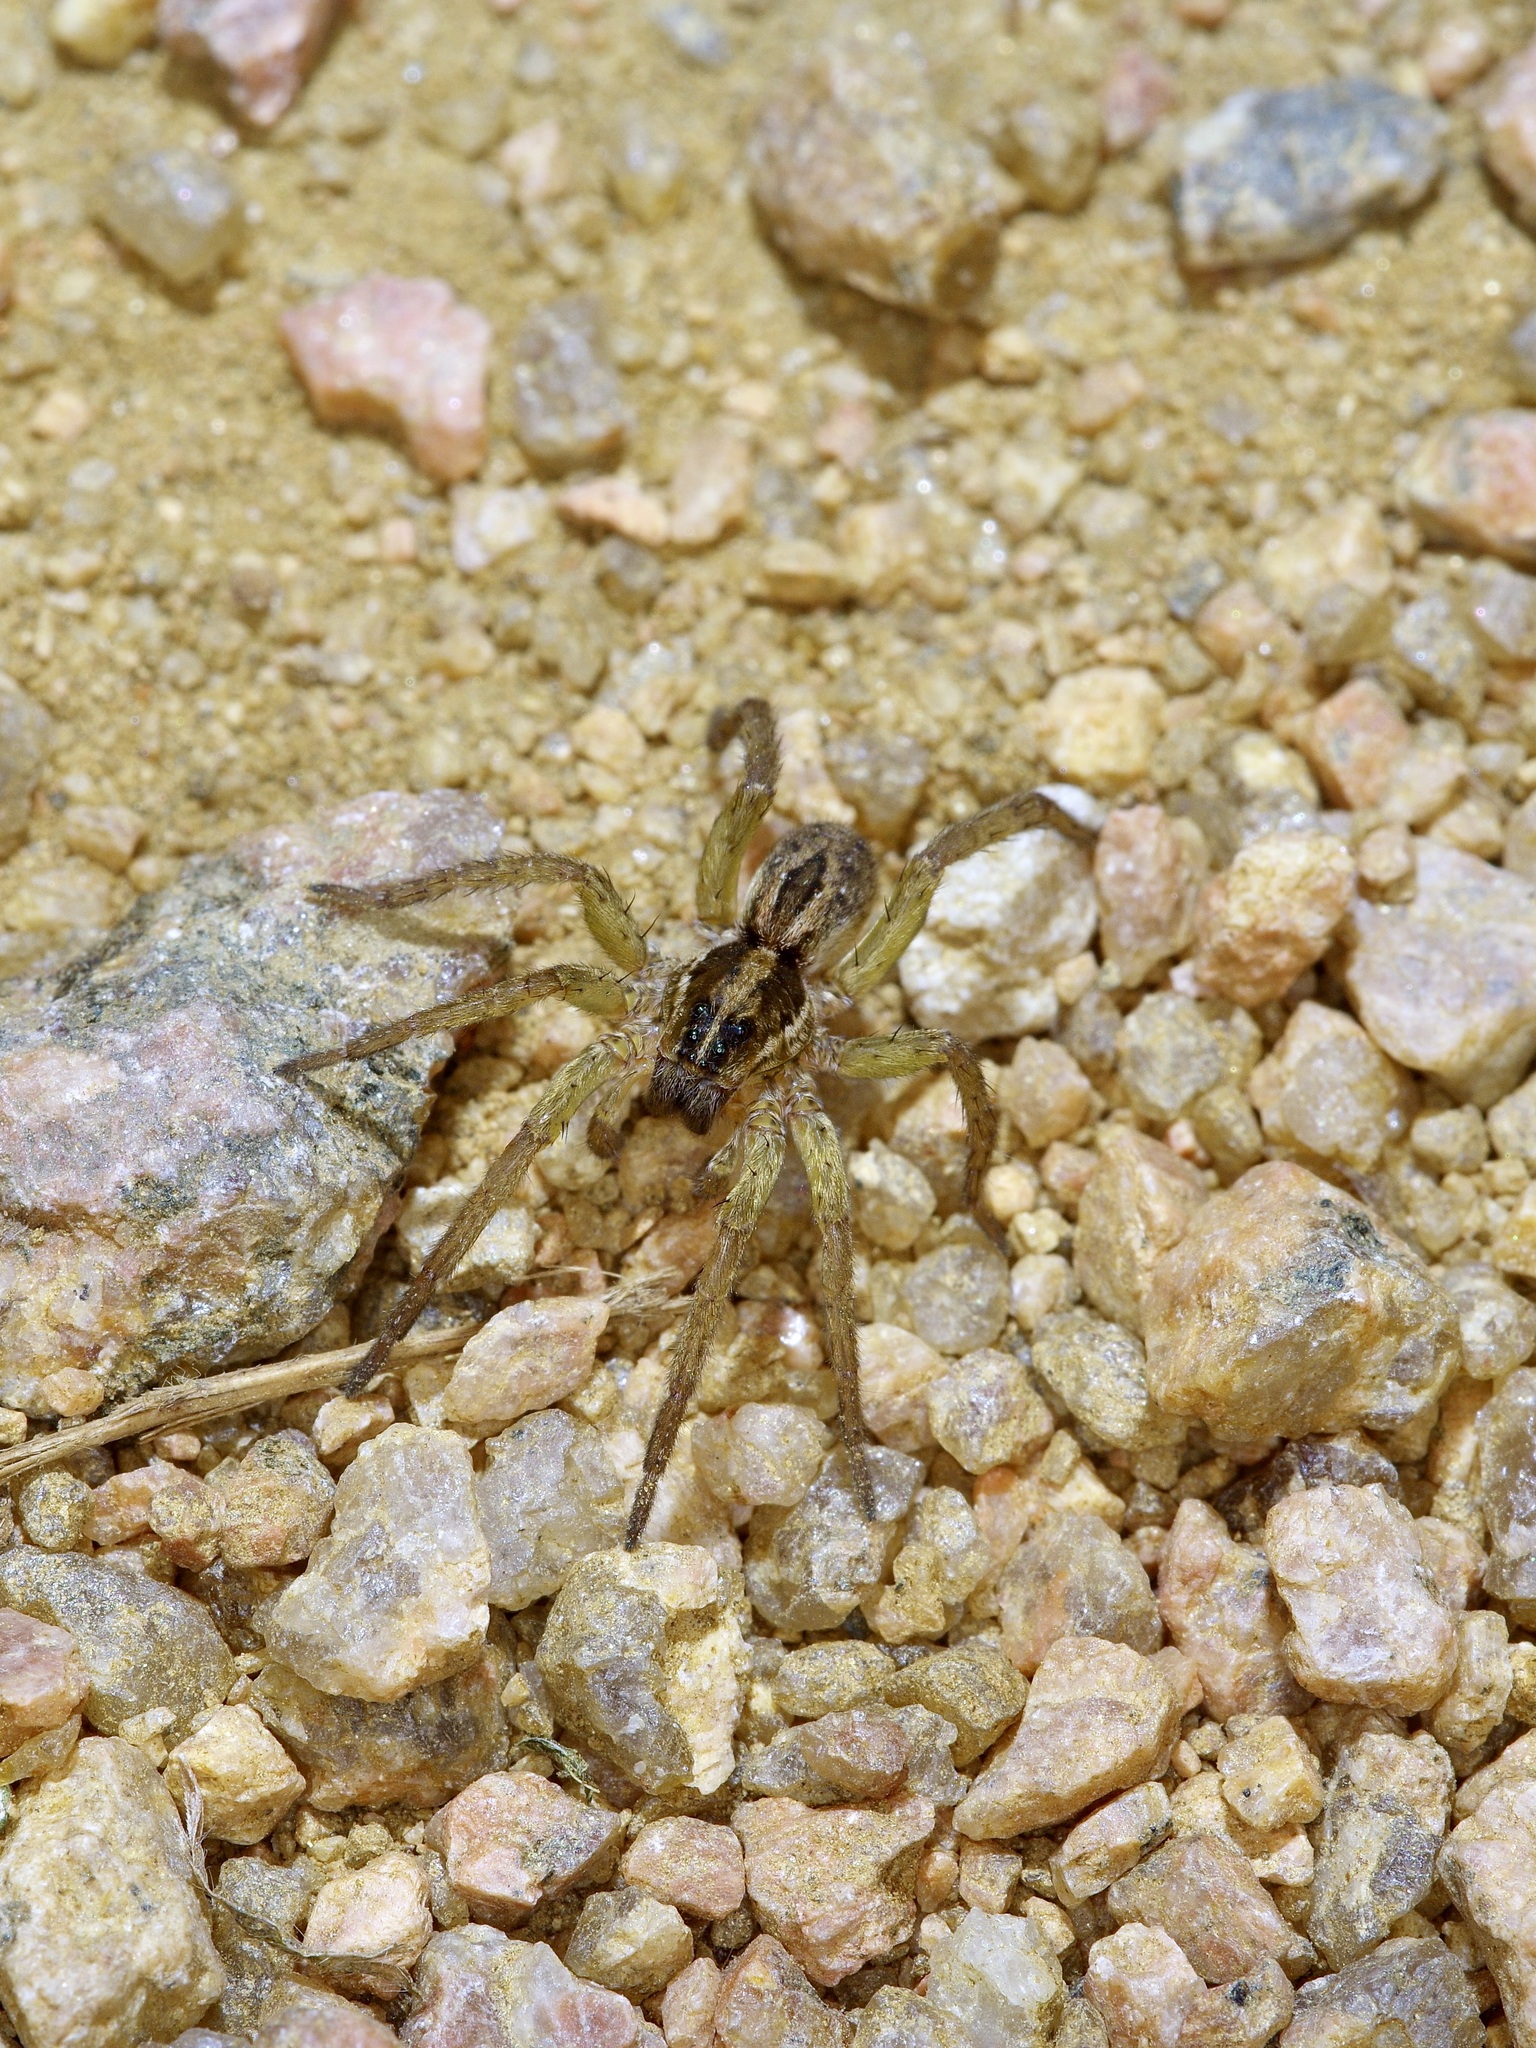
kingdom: Animalia
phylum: Arthropoda
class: Arachnida
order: Araneae
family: Lycosidae
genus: Tigrosa
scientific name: Tigrosa annexa
